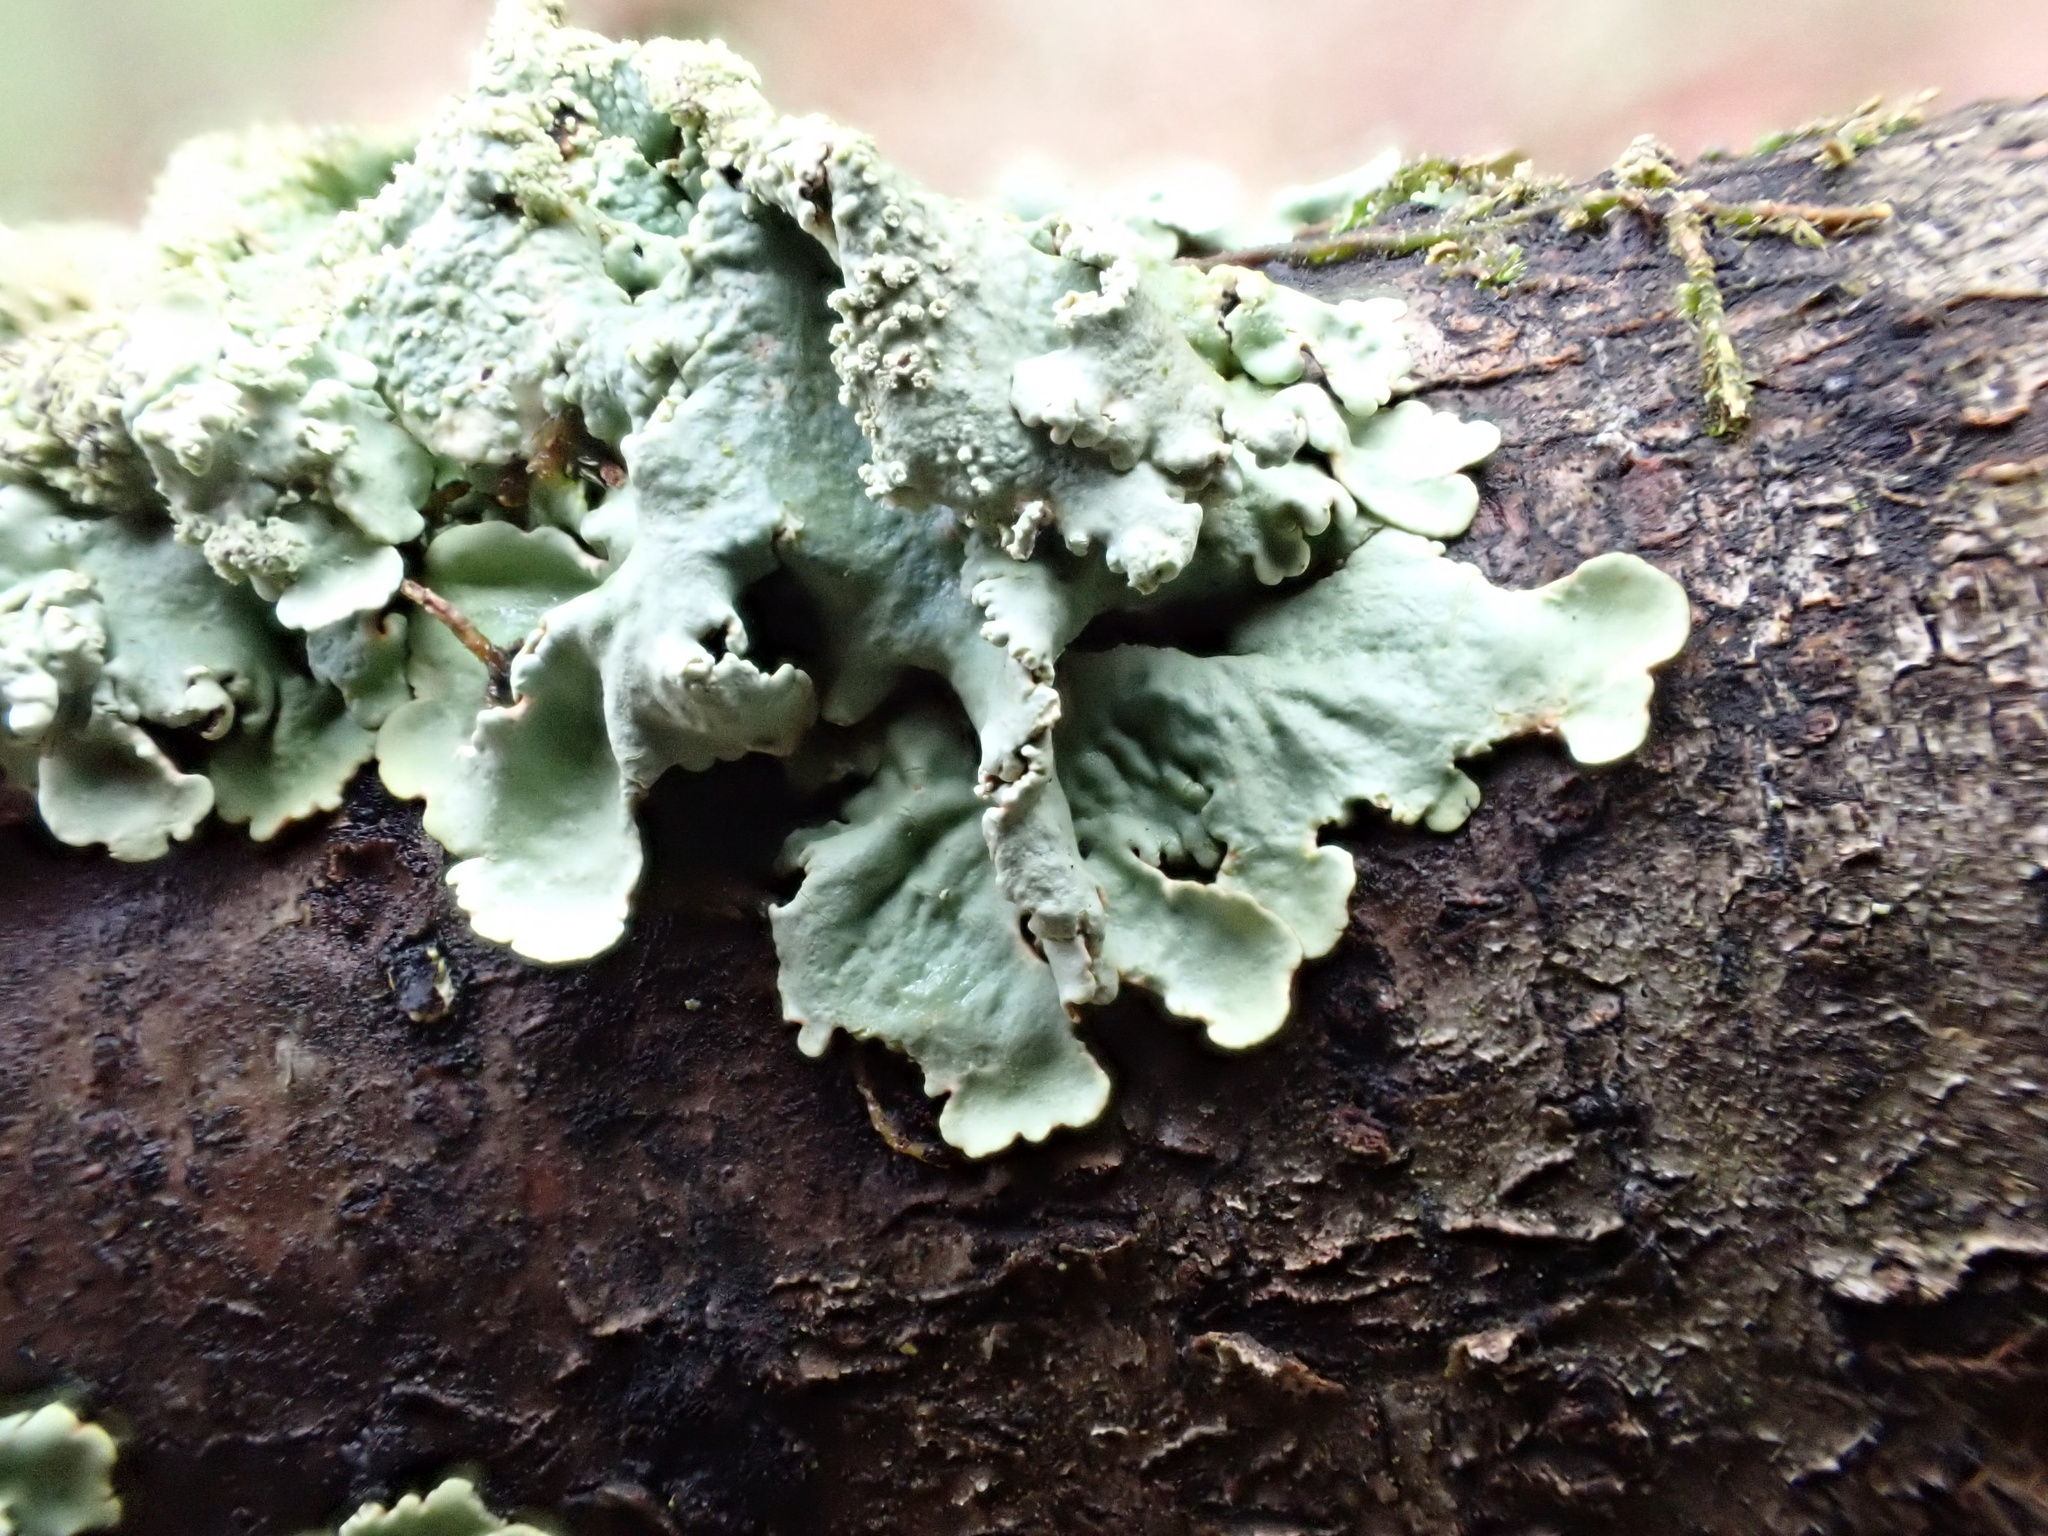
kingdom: Fungi
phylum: Ascomycota
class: Lecanoromycetes
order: Lecanorales
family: Parmeliaceae
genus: Flavoparmelia
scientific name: Flavoparmelia caperata
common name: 40-mile per hour lichen
